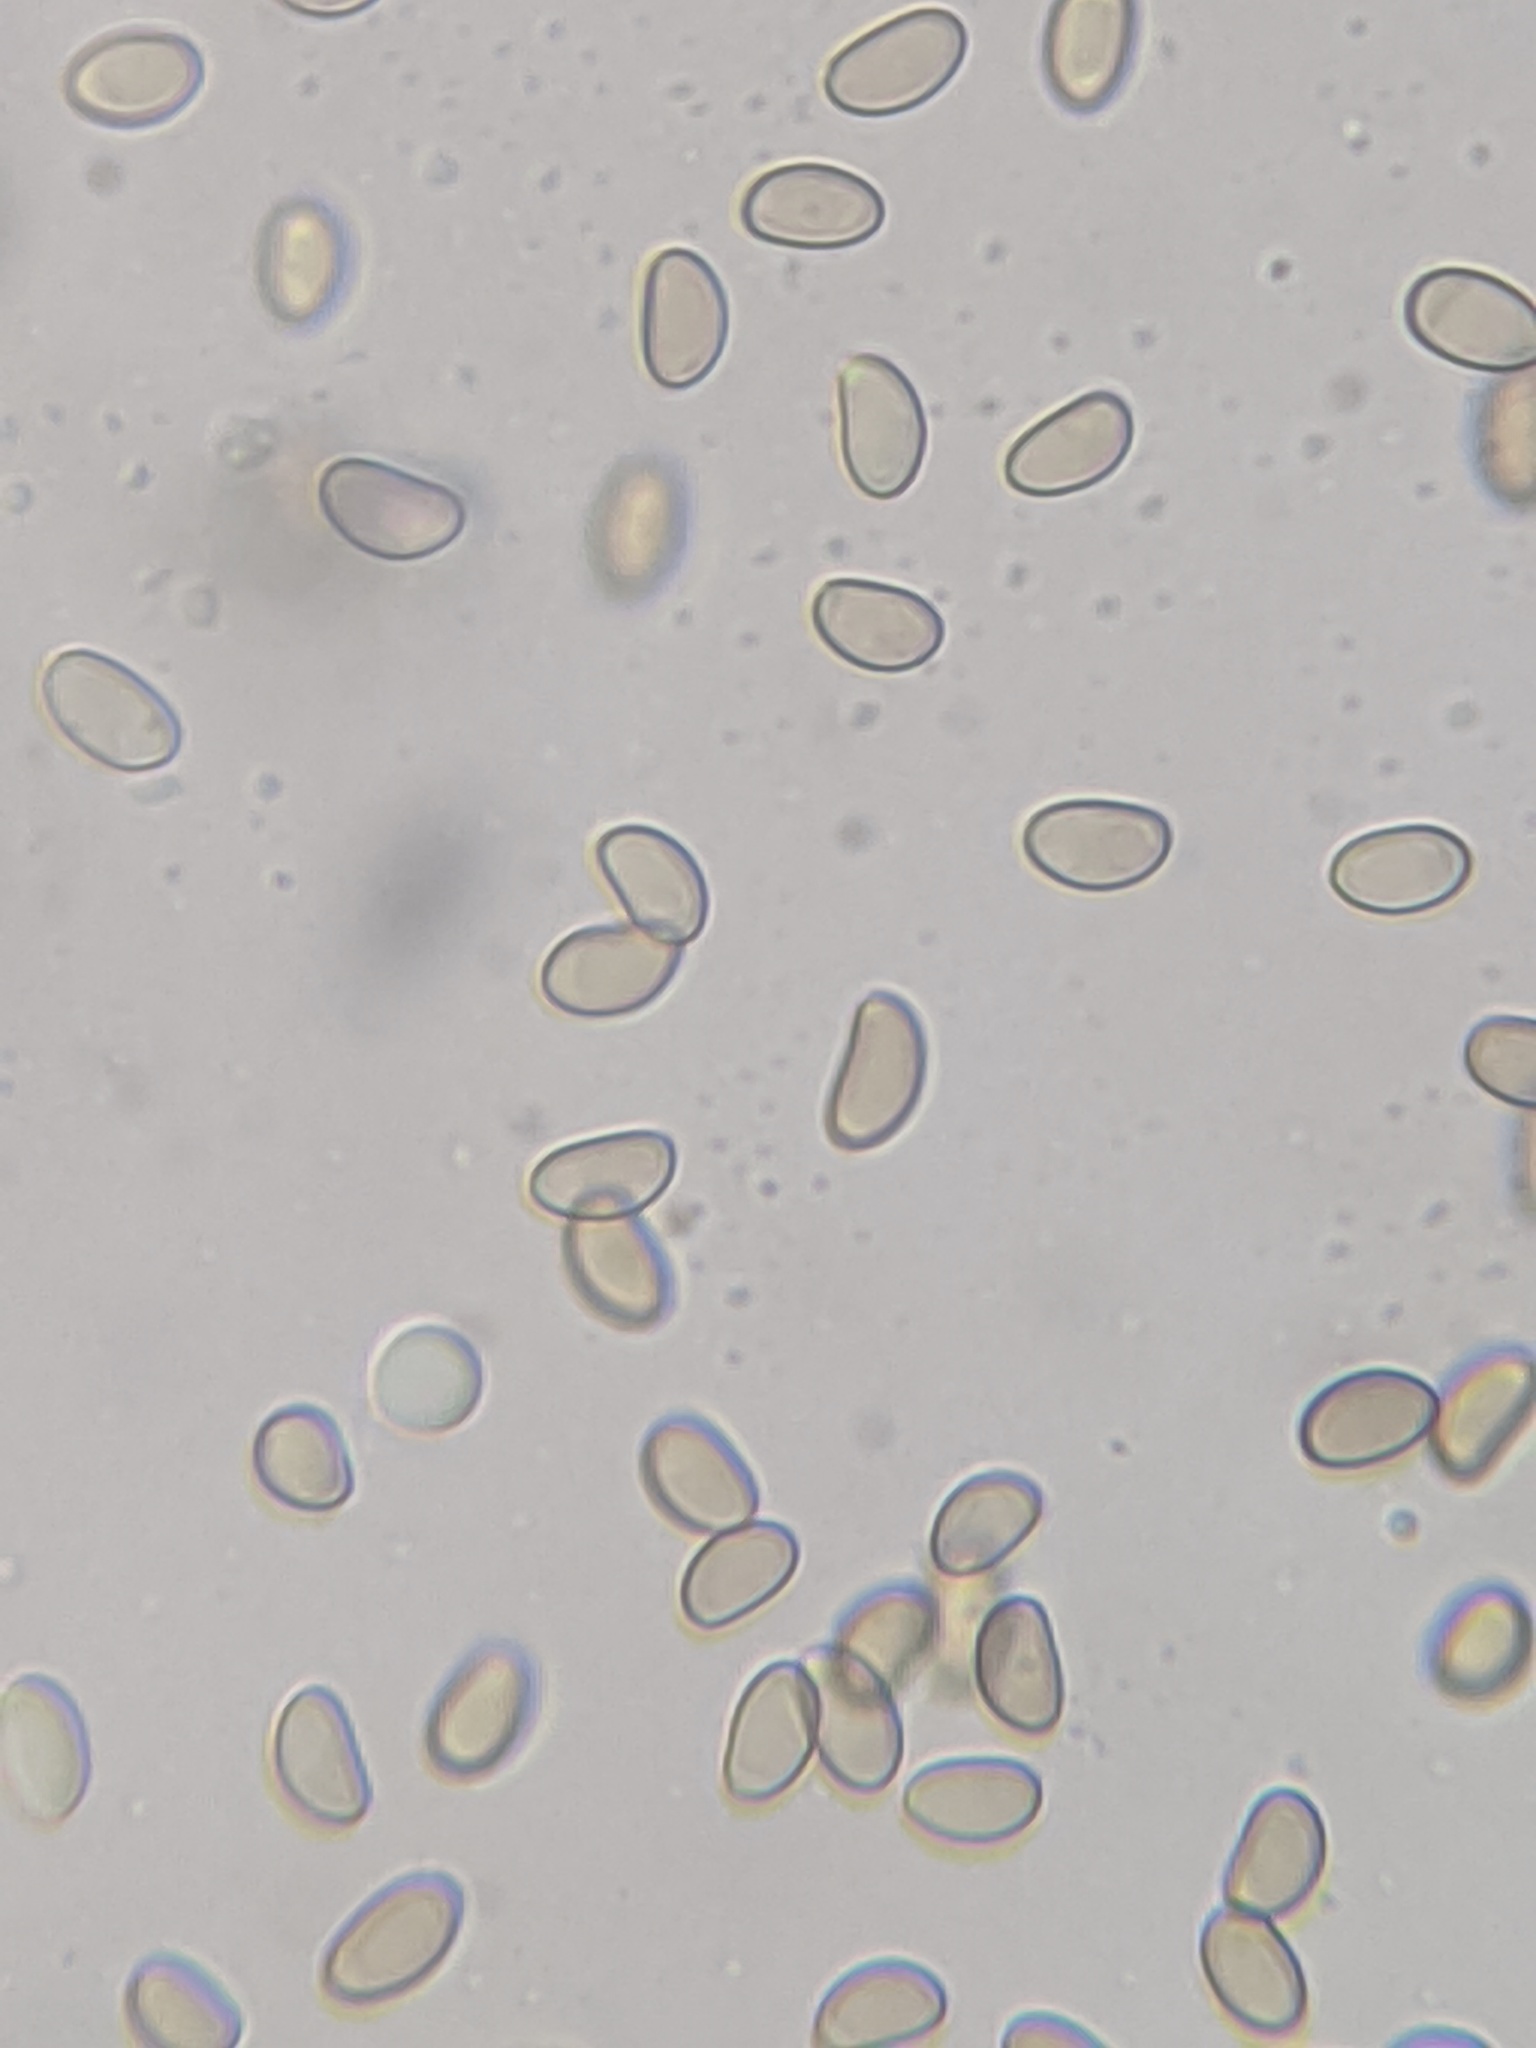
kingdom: Fungi
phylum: Basidiomycota
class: Agaricomycetes
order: Agaricales
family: Inocybaceae
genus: Mallocybe
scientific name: Mallocybe unicolor
